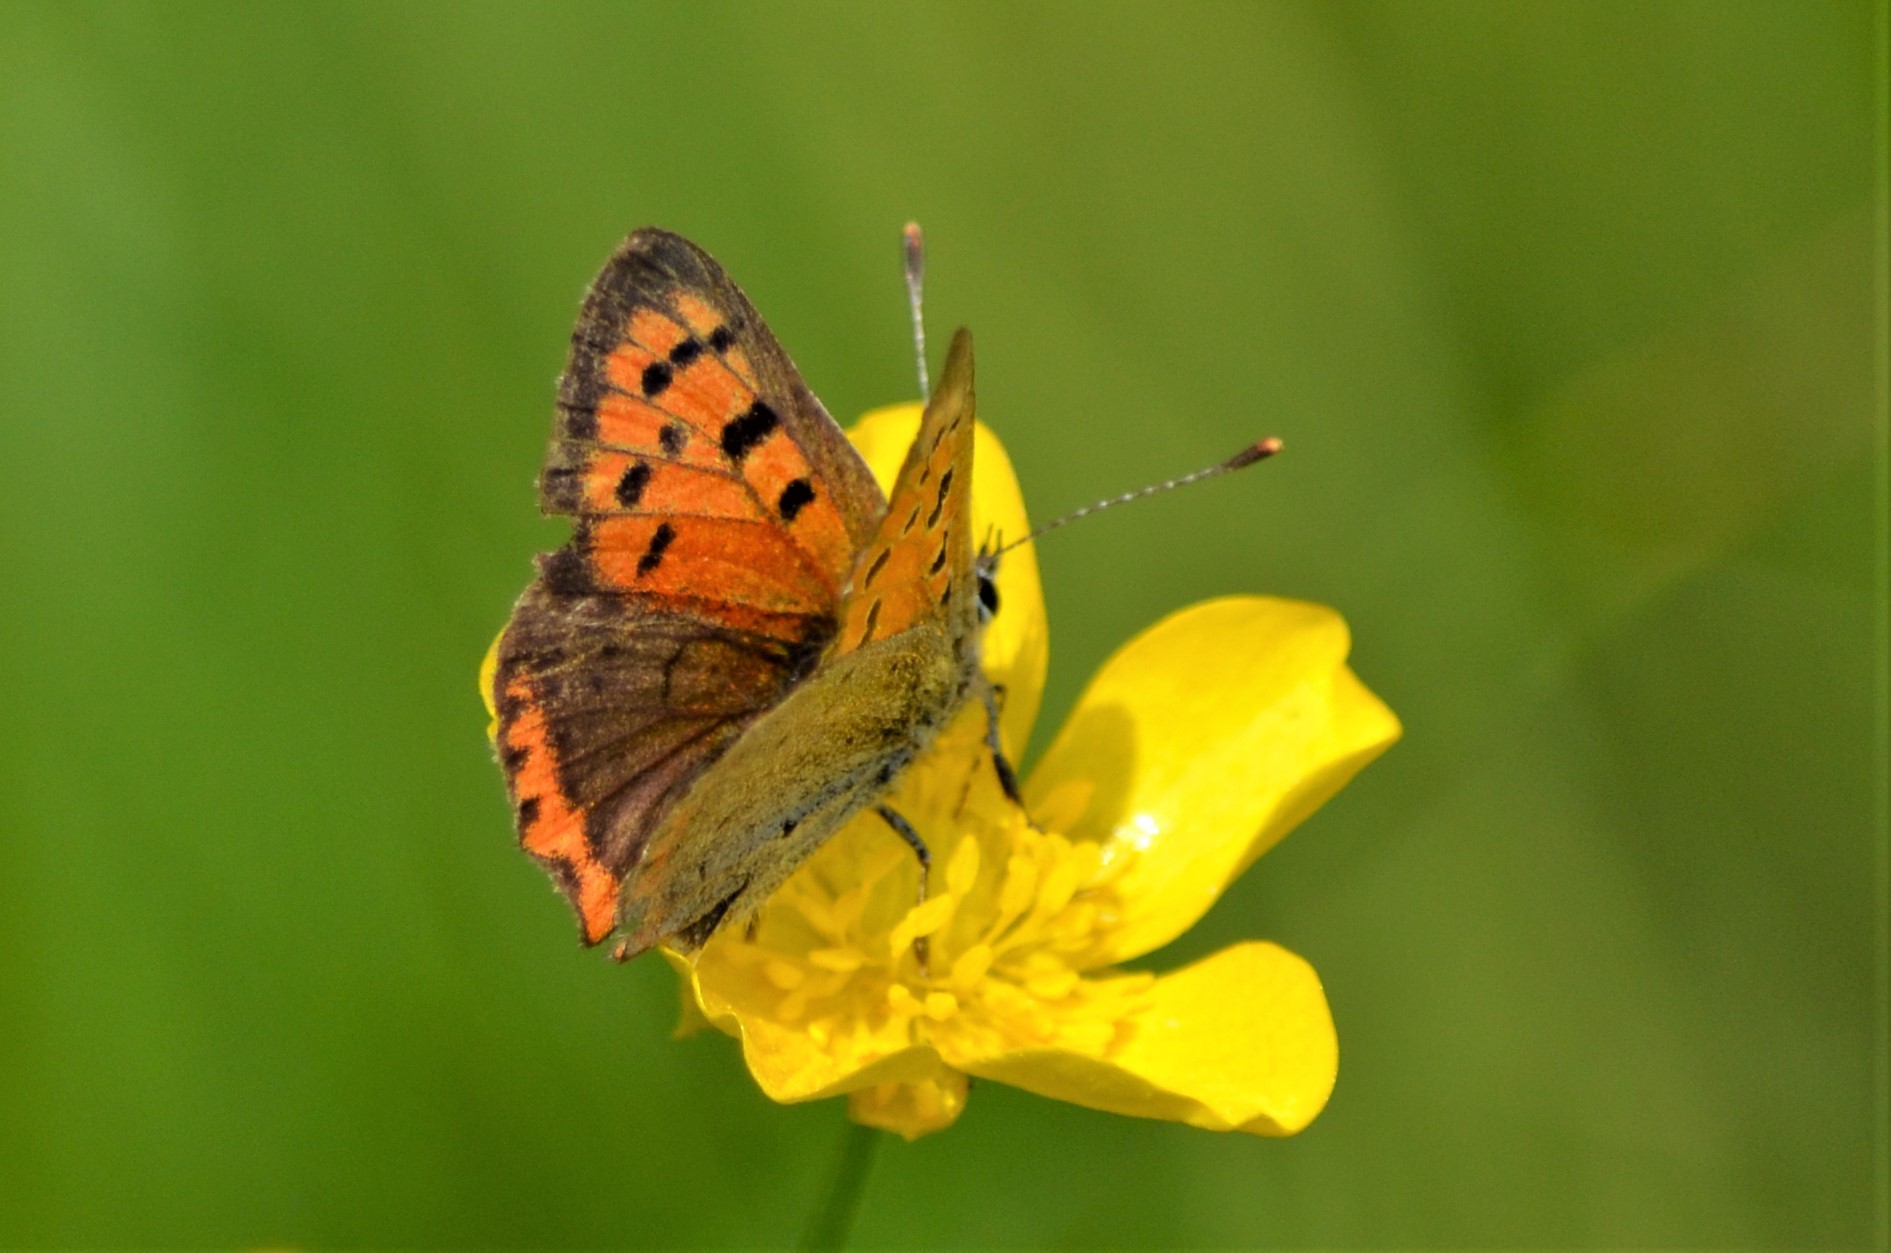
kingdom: Animalia
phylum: Arthropoda
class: Insecta
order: Lepidoptera
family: Lycaenidae
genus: Lycaena
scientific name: Lycaena phlaeas
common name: Small copper
